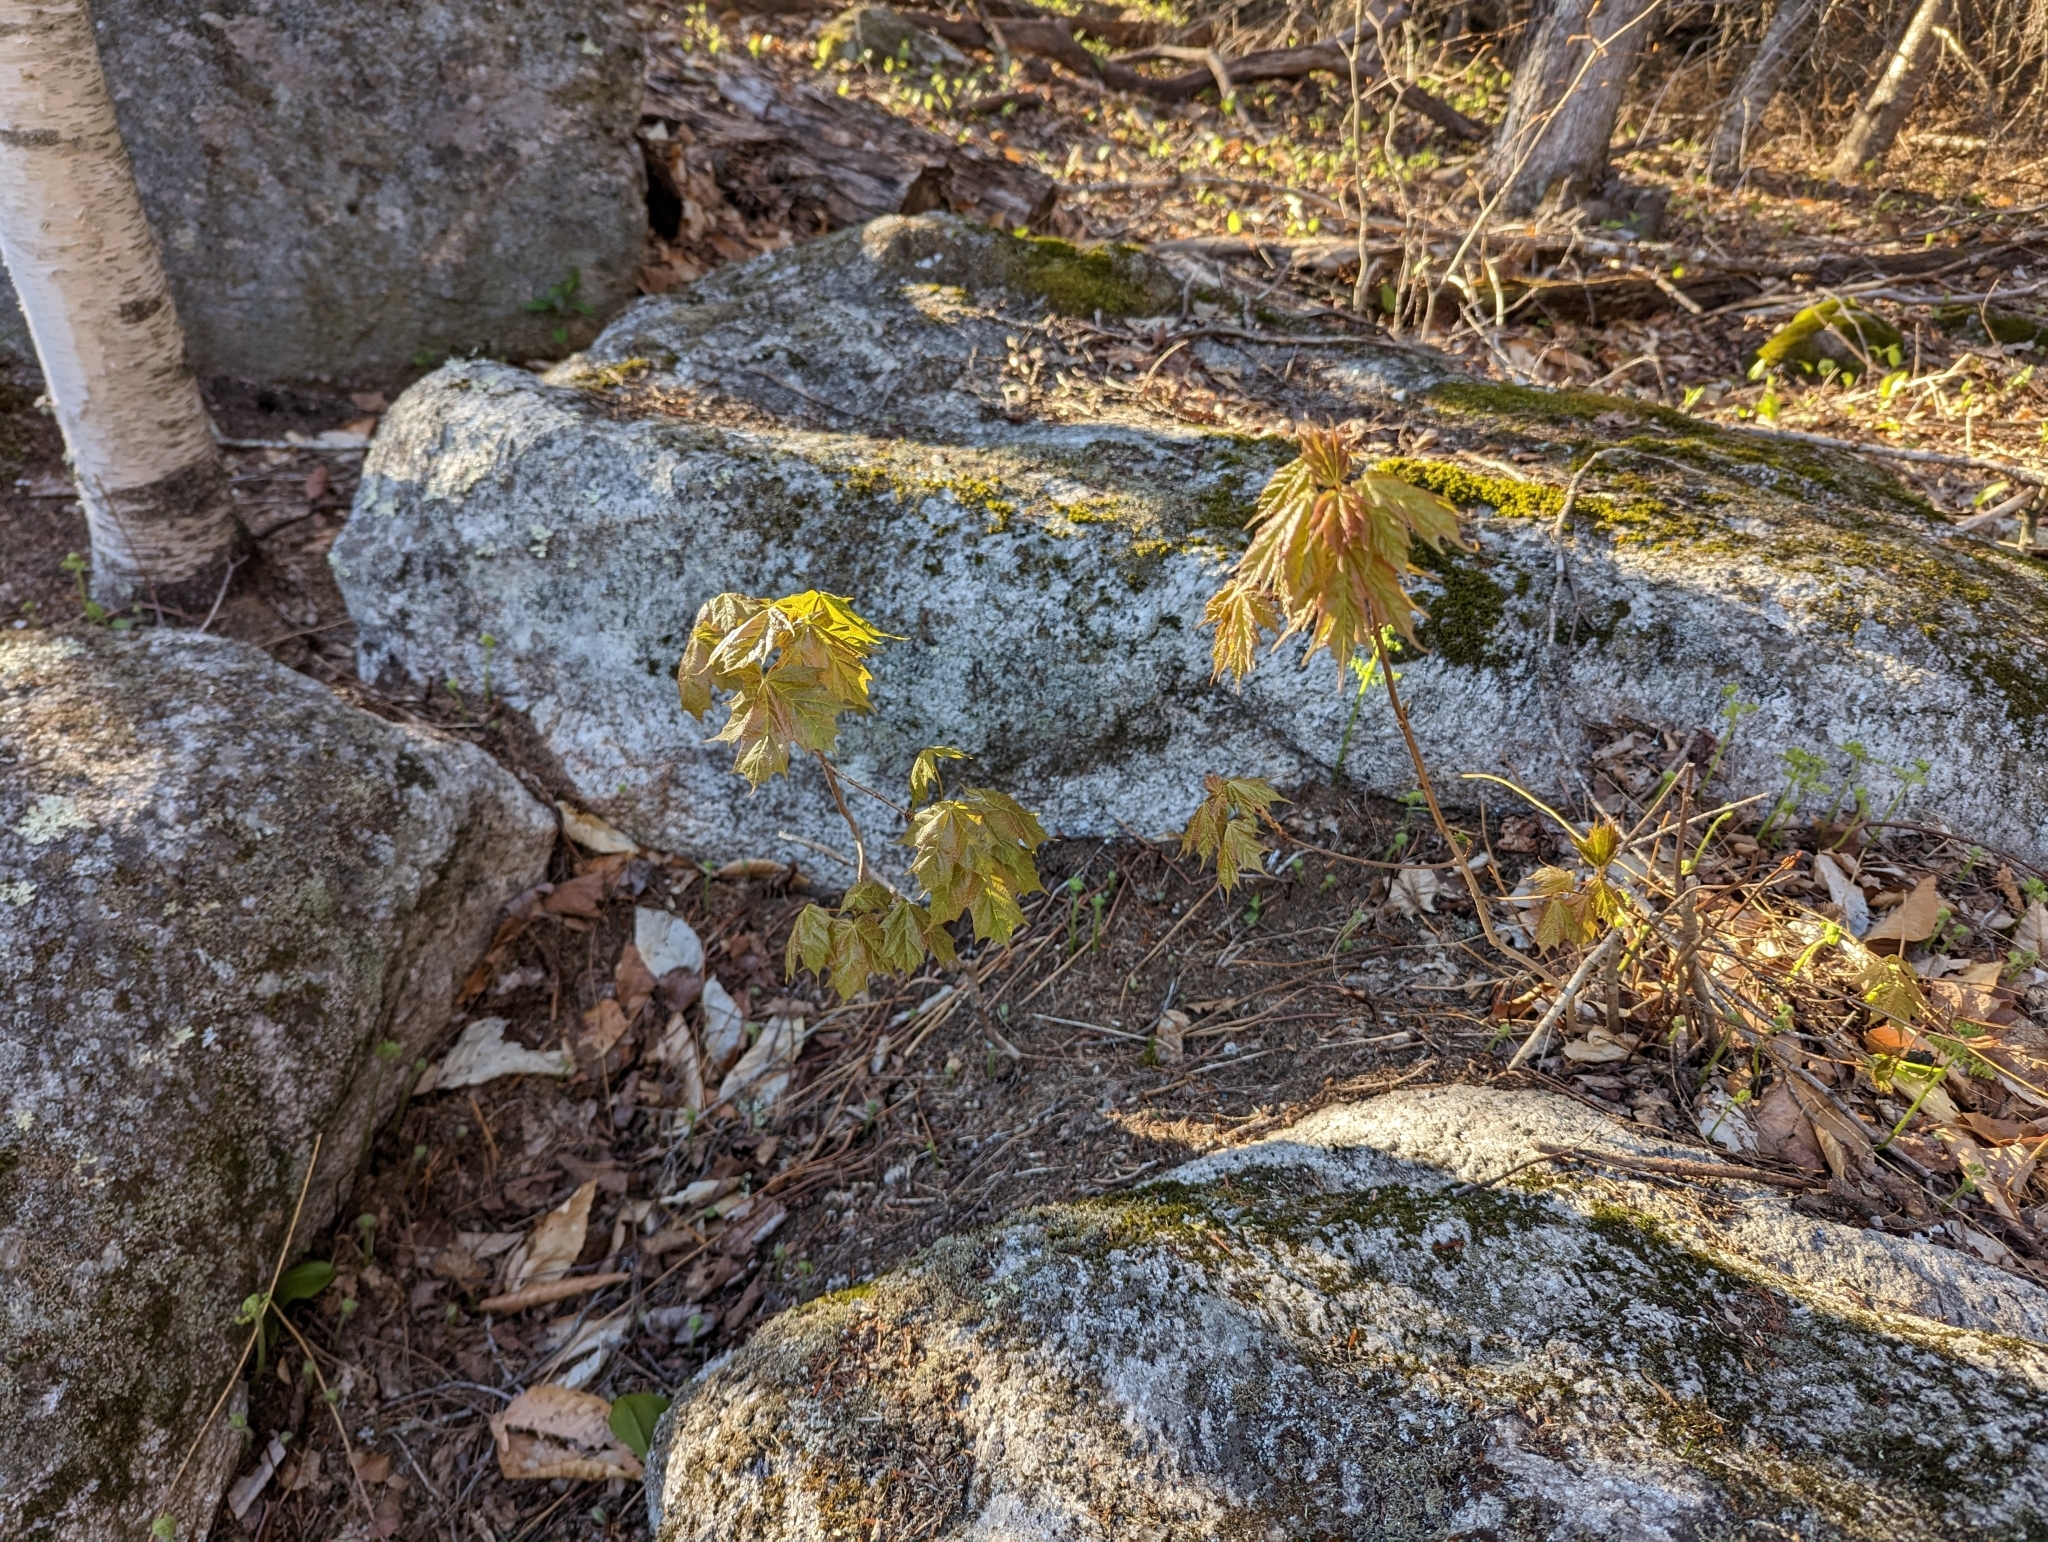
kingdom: Plantae
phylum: Tracheophyta
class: Magnoliopsida
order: Sapindales
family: Sapindaceae
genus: Acer
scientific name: Acer saccharum
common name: Sugar maple
